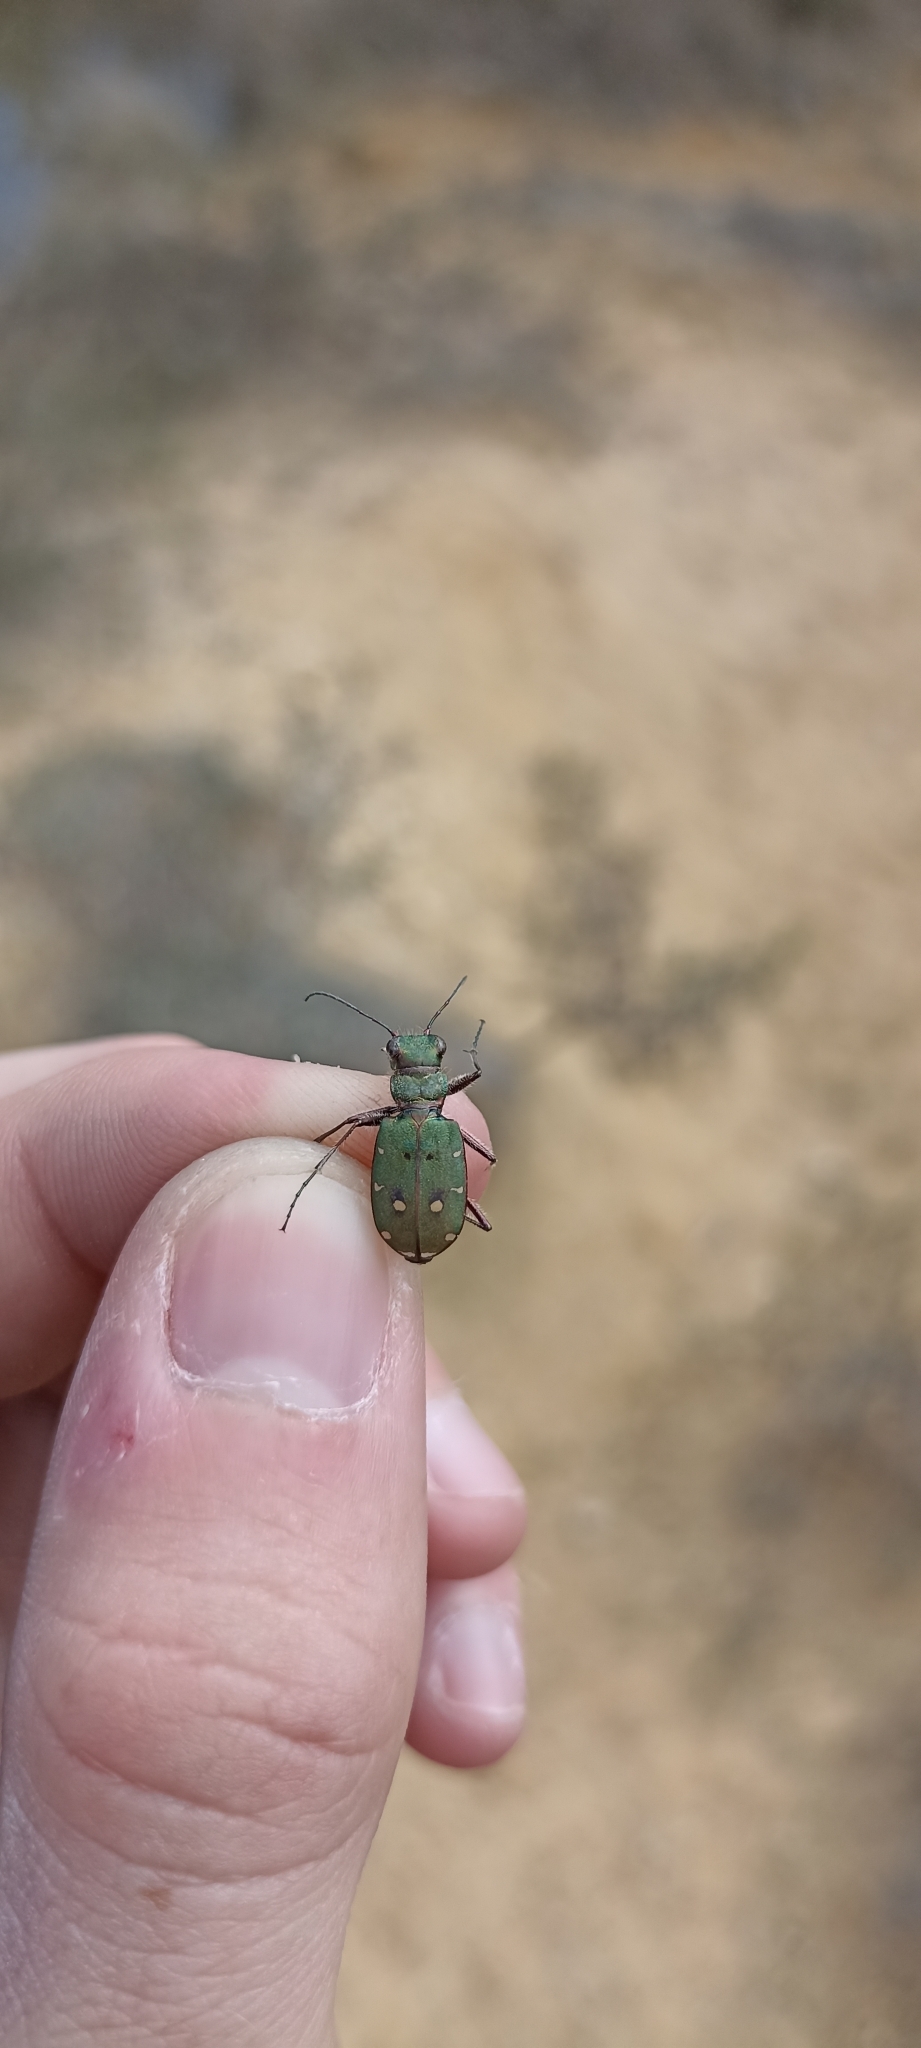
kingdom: Animalia
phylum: Arthropoda
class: Insecta
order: Coleoptera
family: Carabidae
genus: Cicindela
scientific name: Cicindela campestris
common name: Common tiger beetle
